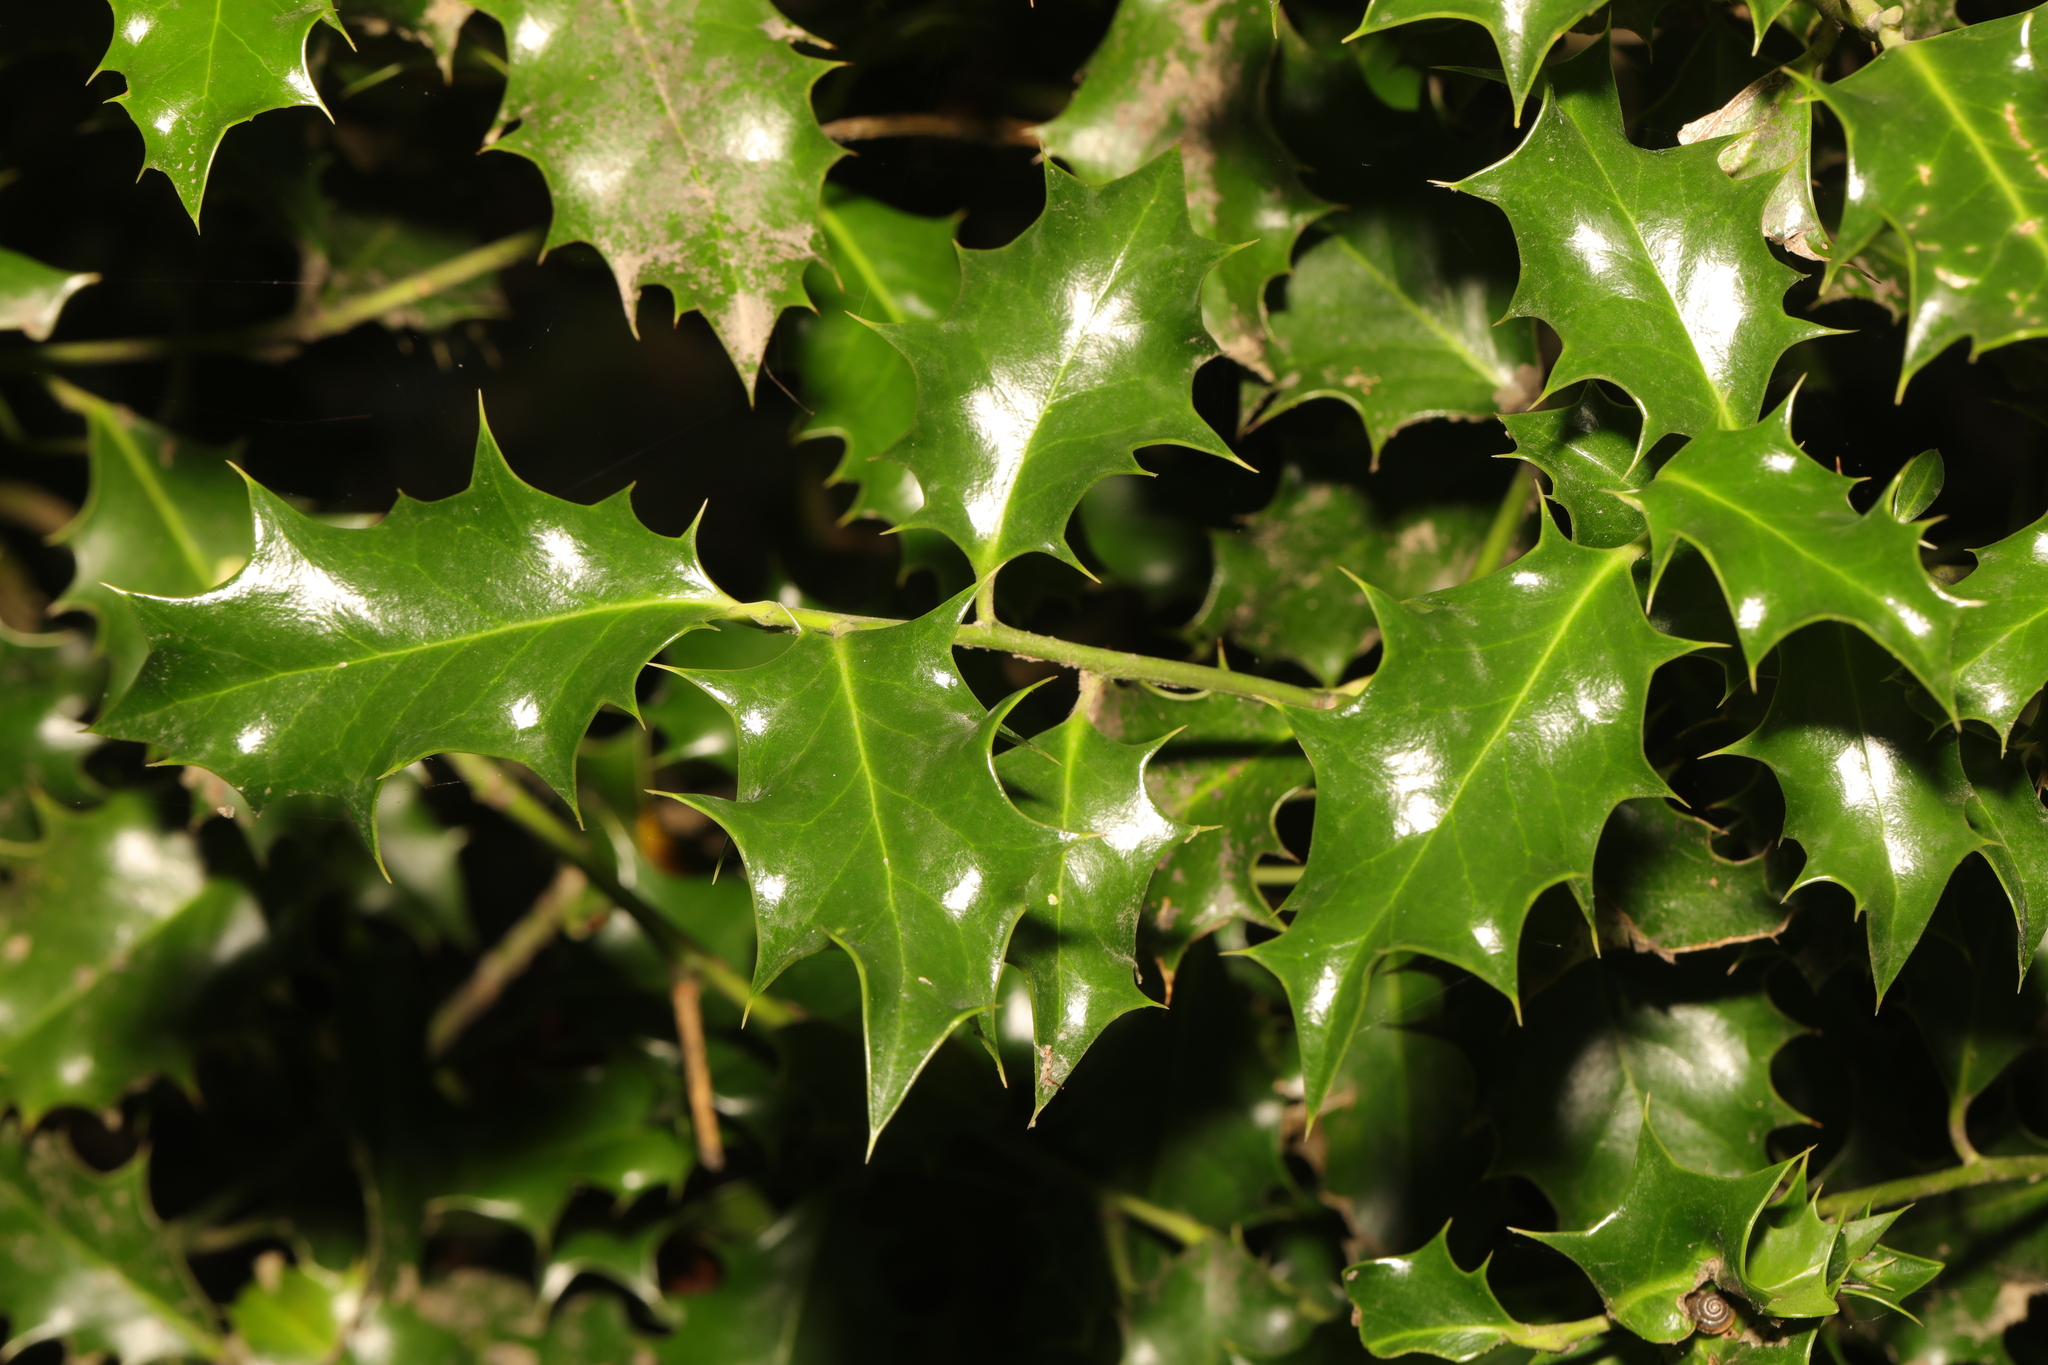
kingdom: Plantae
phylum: Tracheophyta
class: Magnoliopsida
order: Aquifoliales
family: Aquifoliaceae
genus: Ilex
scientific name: Ilex aquifolium
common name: English holly
